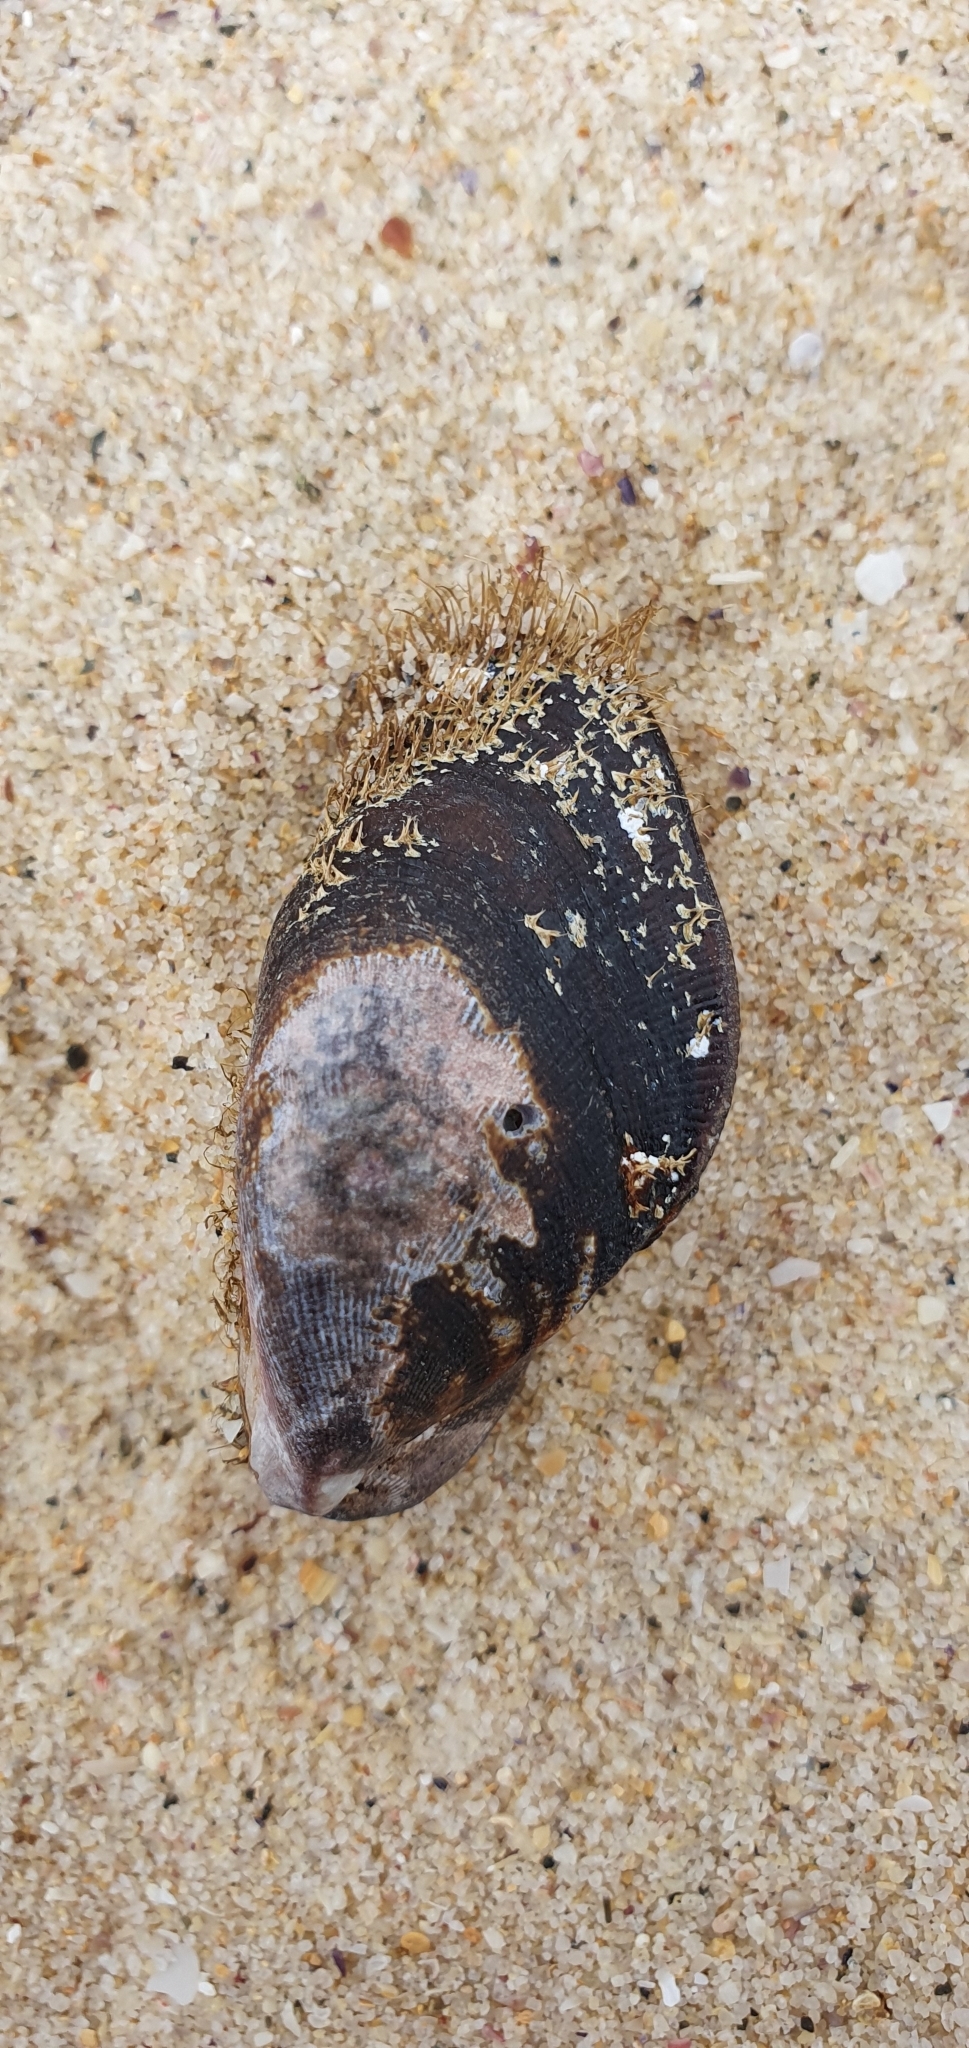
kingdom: Animalia
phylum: Mollusca
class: Bivalvia
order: Mytilida
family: Mytilidae
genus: Trichomya
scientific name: Trichomya hirsuta
